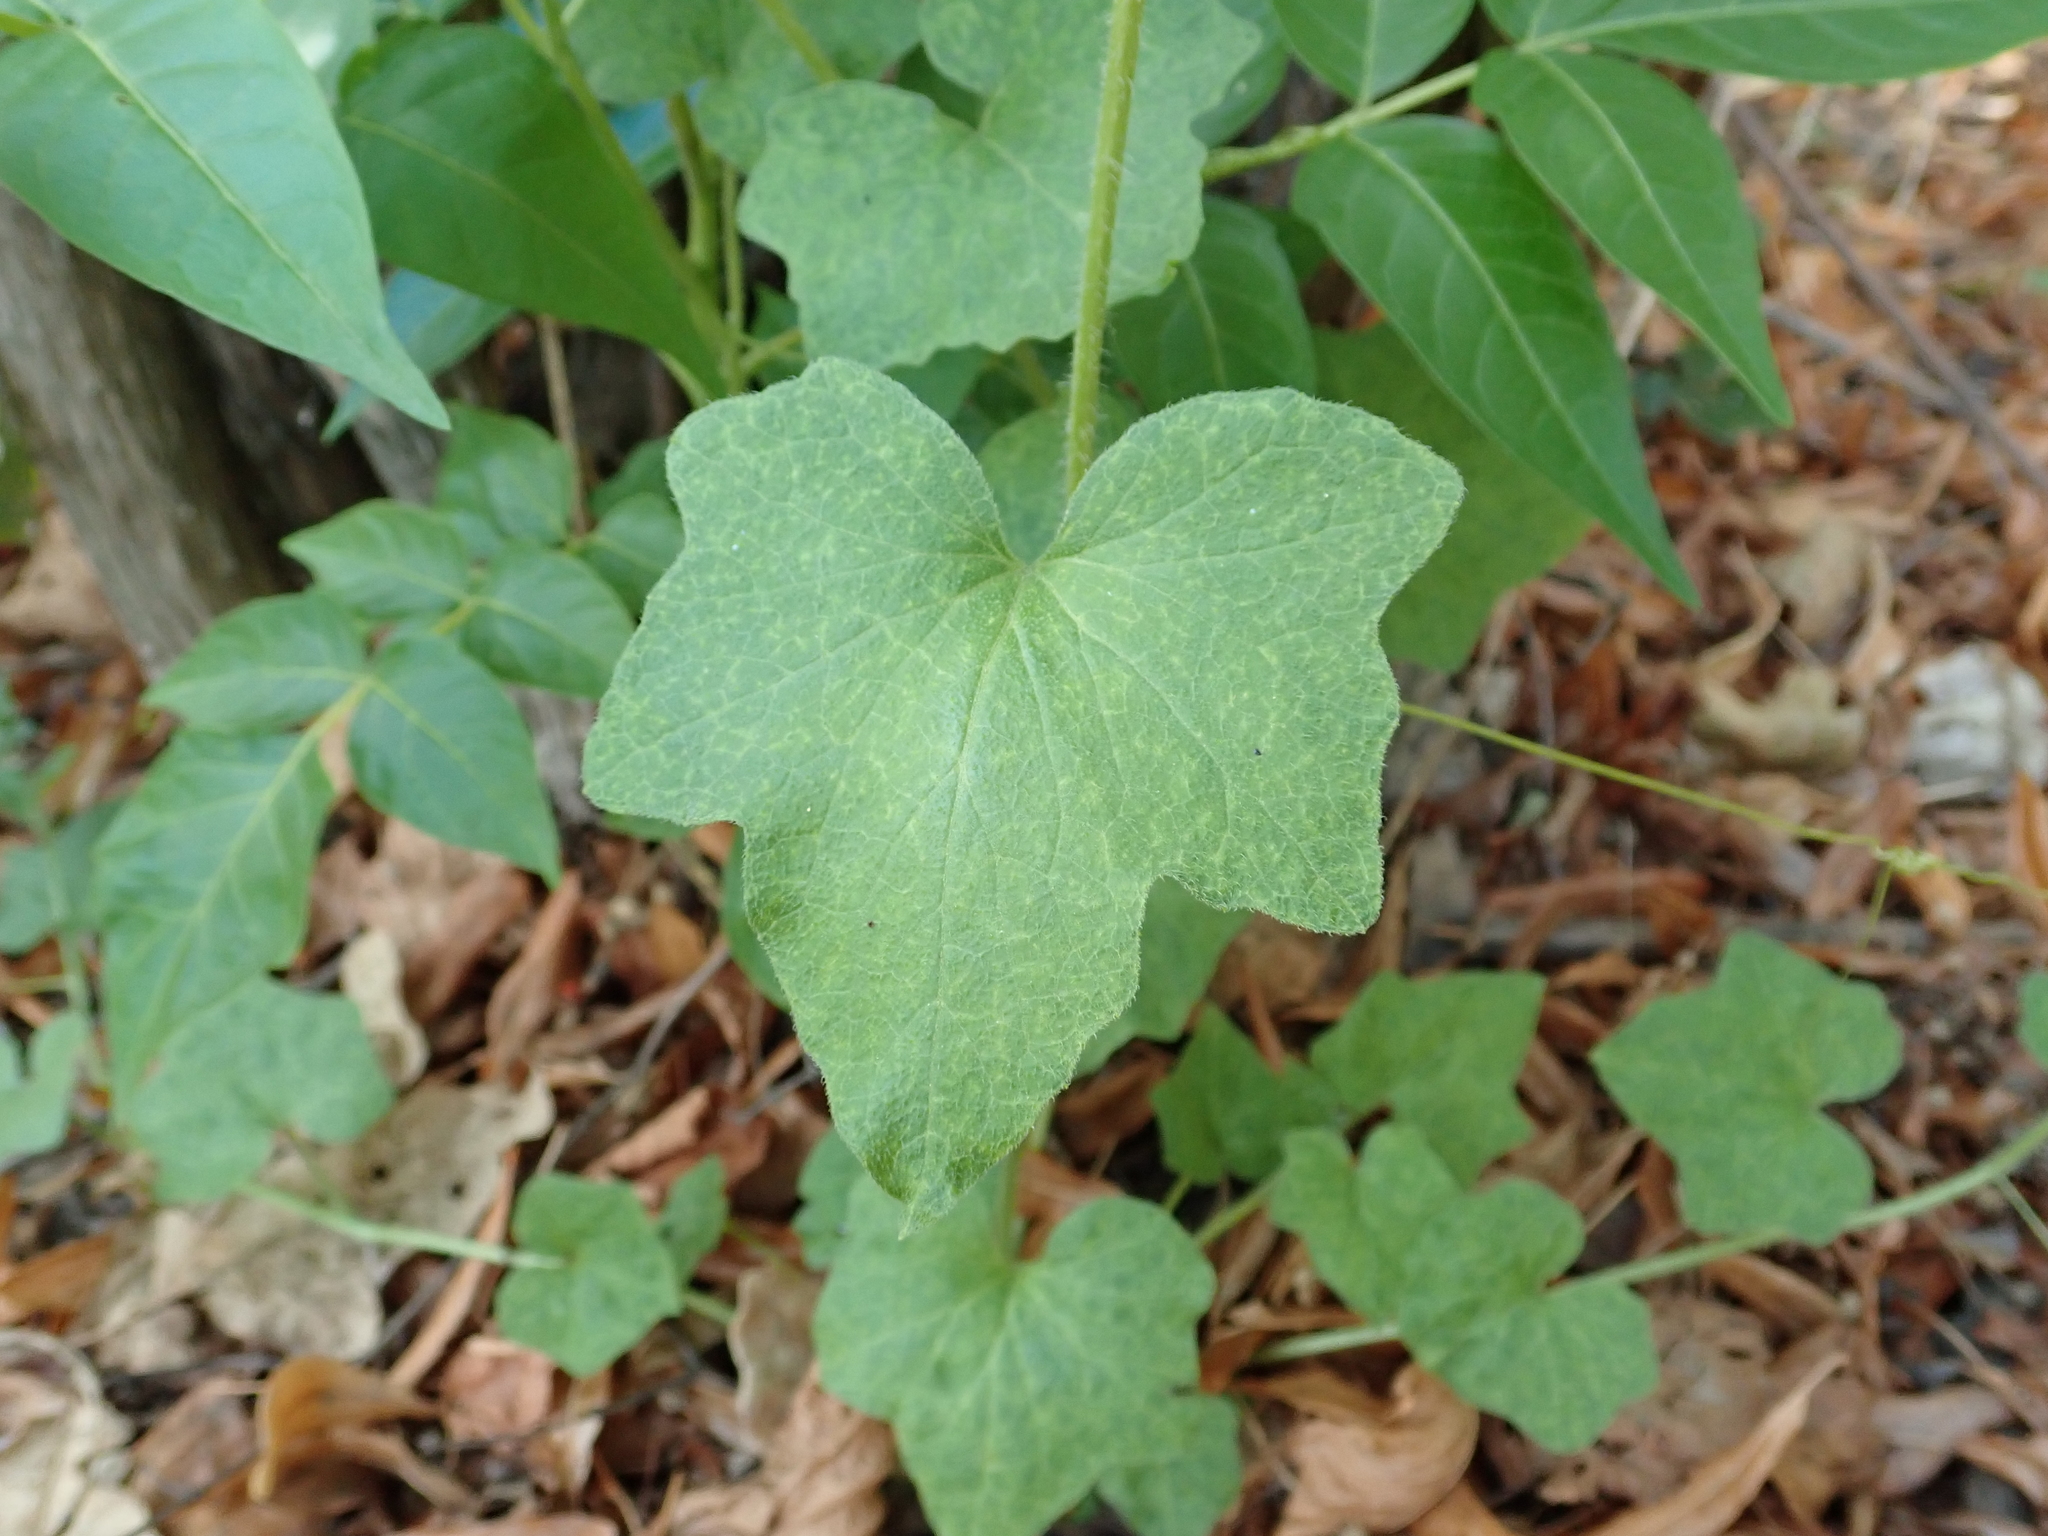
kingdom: Plantae
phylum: Tracheophyta
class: Magnoliopsida
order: Cucurbitales
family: Cucurbitaceae
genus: Bryonia
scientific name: Bryonia cretica
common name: Cretan bryony
